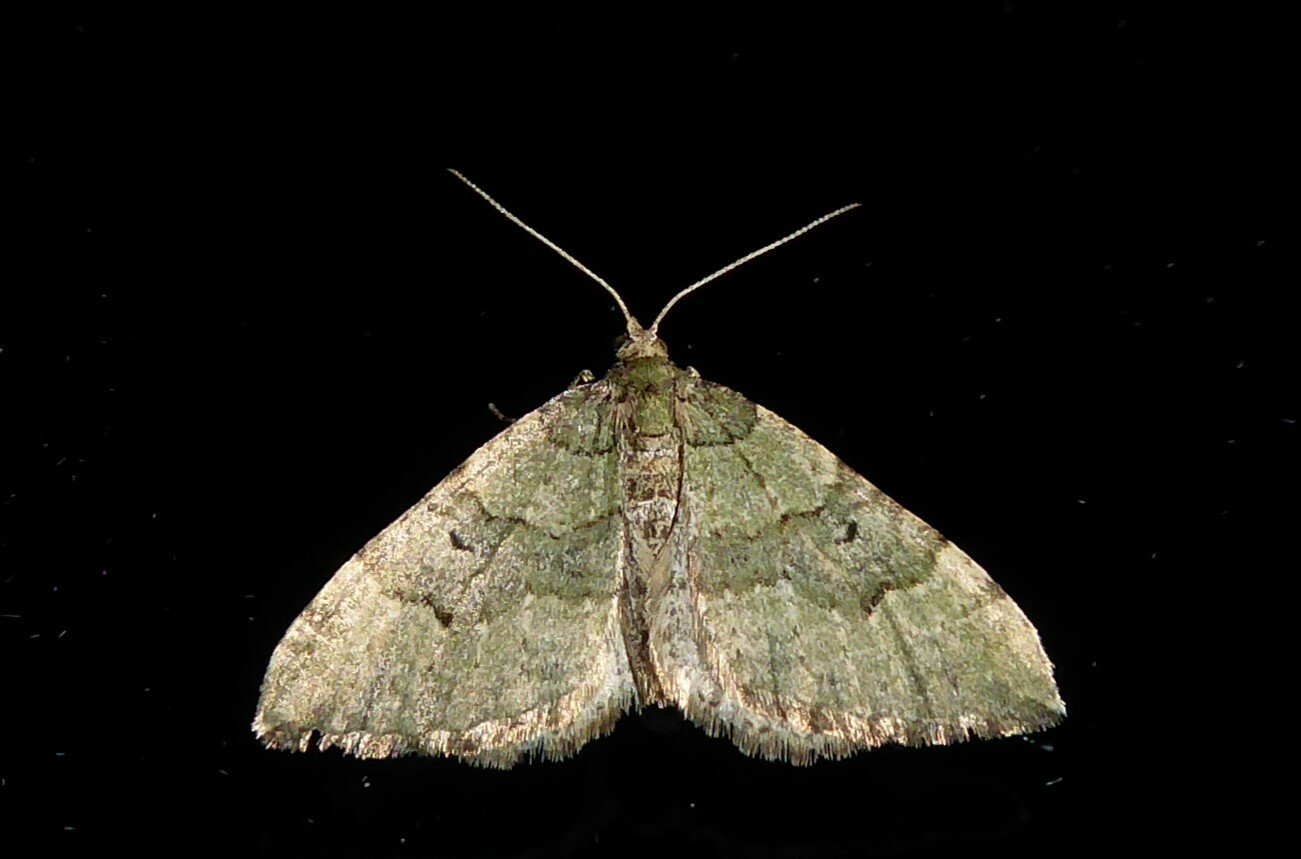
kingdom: Animalia
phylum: Arthropoda
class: Insecta
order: Lepidoptera
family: Geometridae
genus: Epyaxa
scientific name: Epyaxa rosearia
